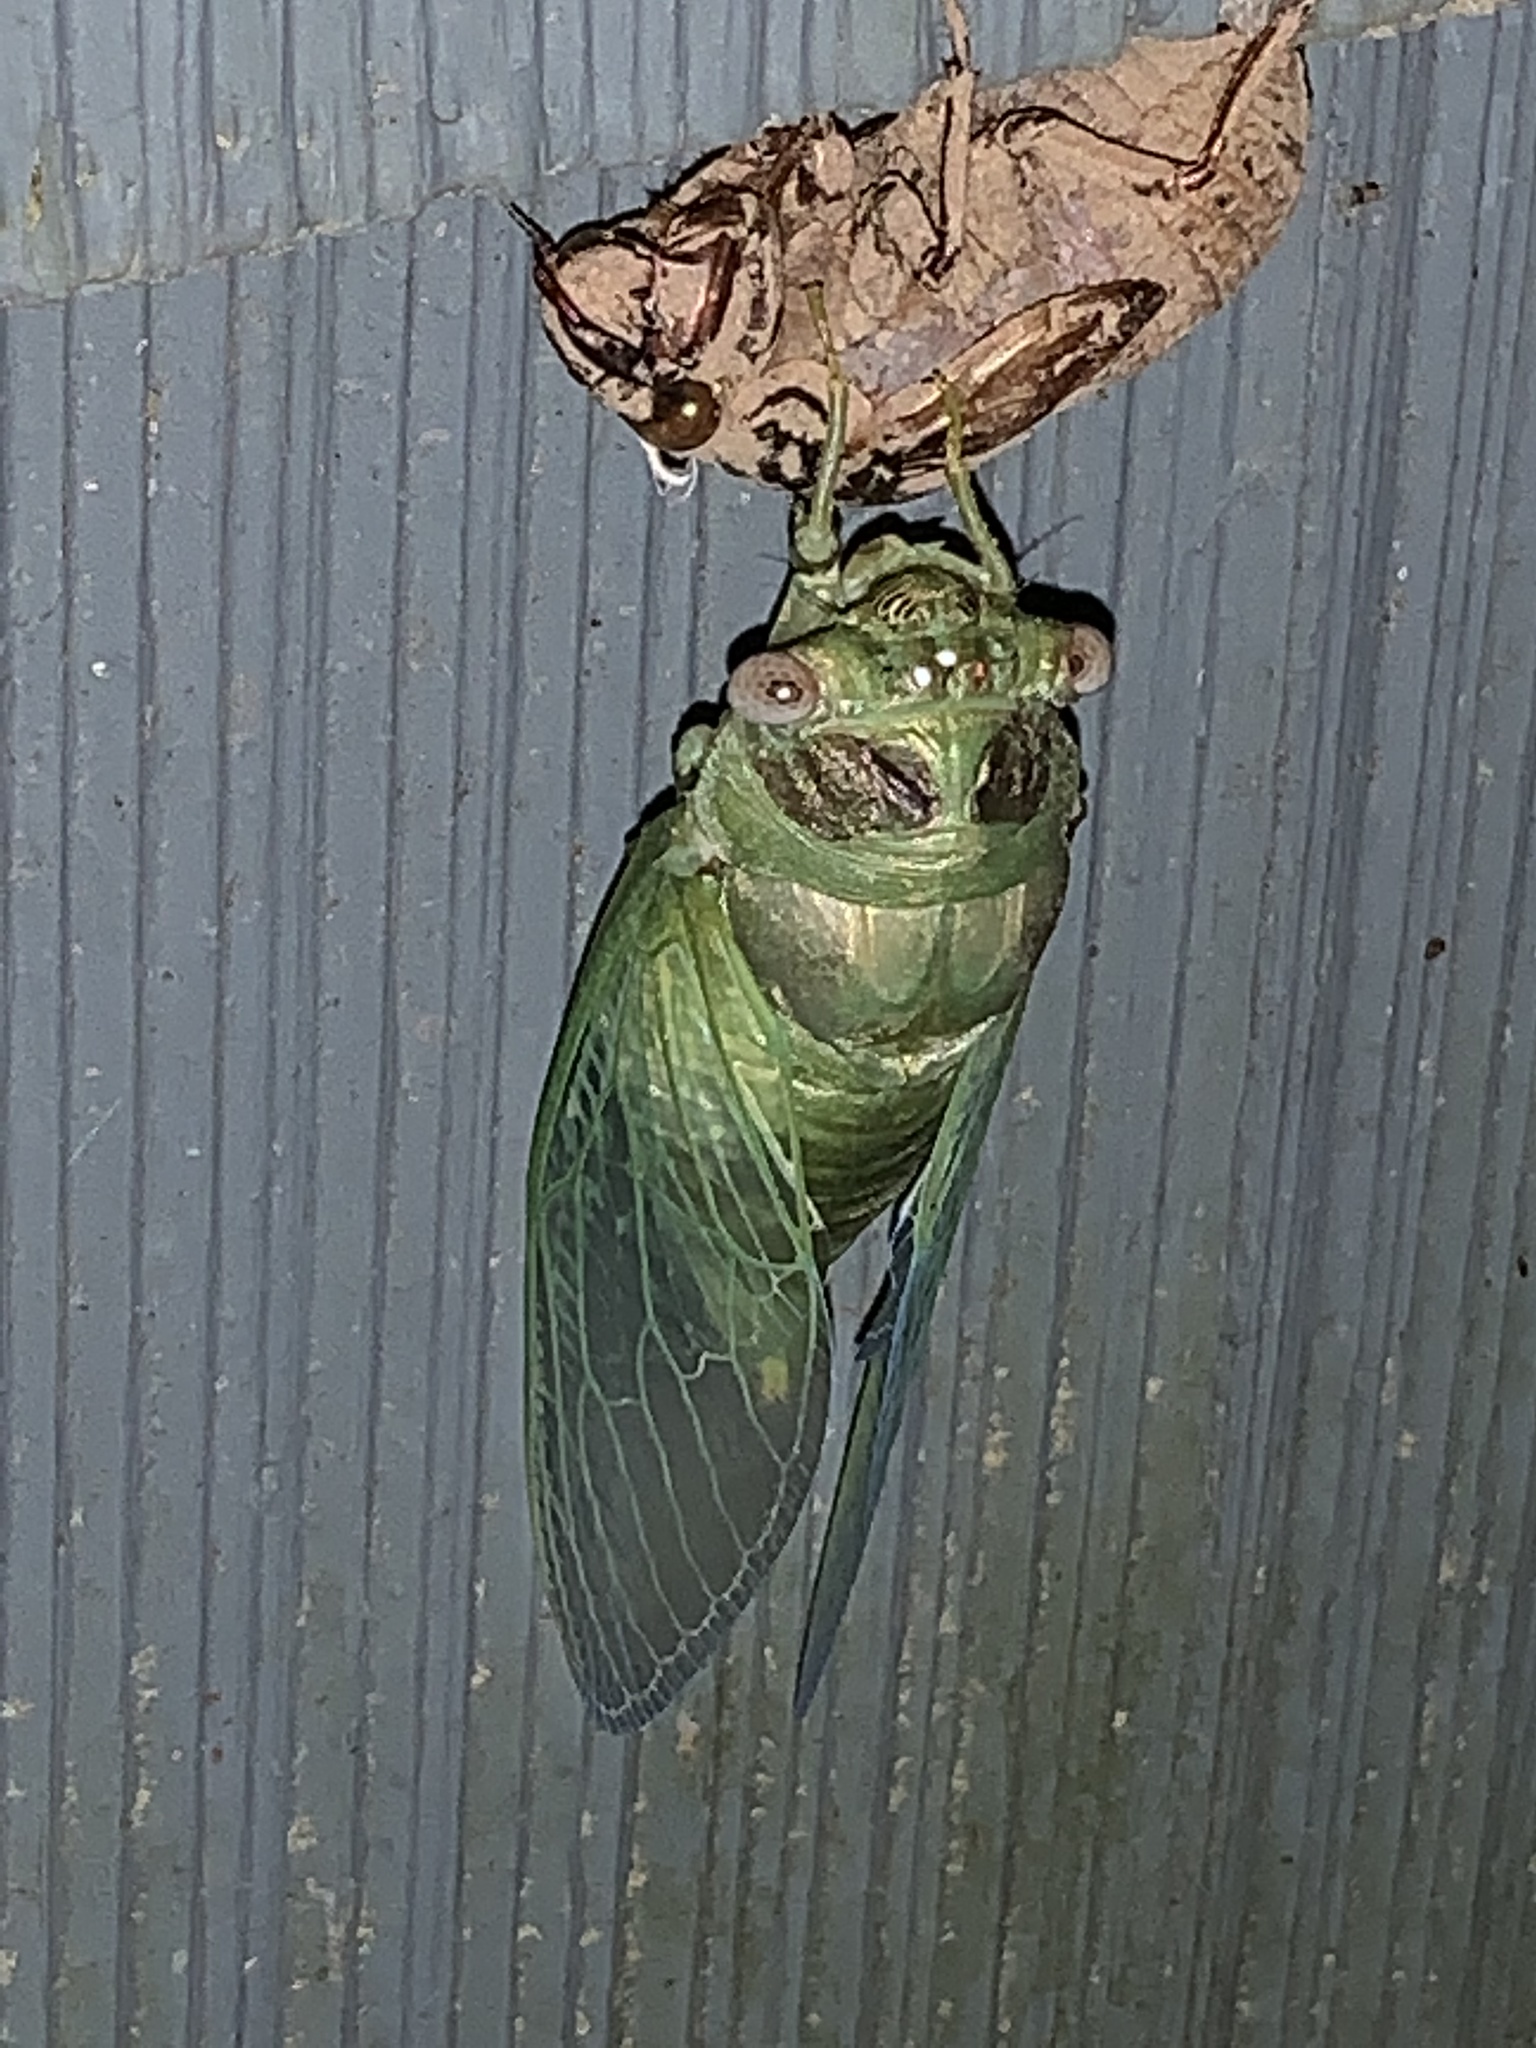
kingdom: Animalia
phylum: Arthropoda
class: Insecta
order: Hemiptera
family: Cicadidae
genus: Diceroprocta
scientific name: Diceroprocta grossa
